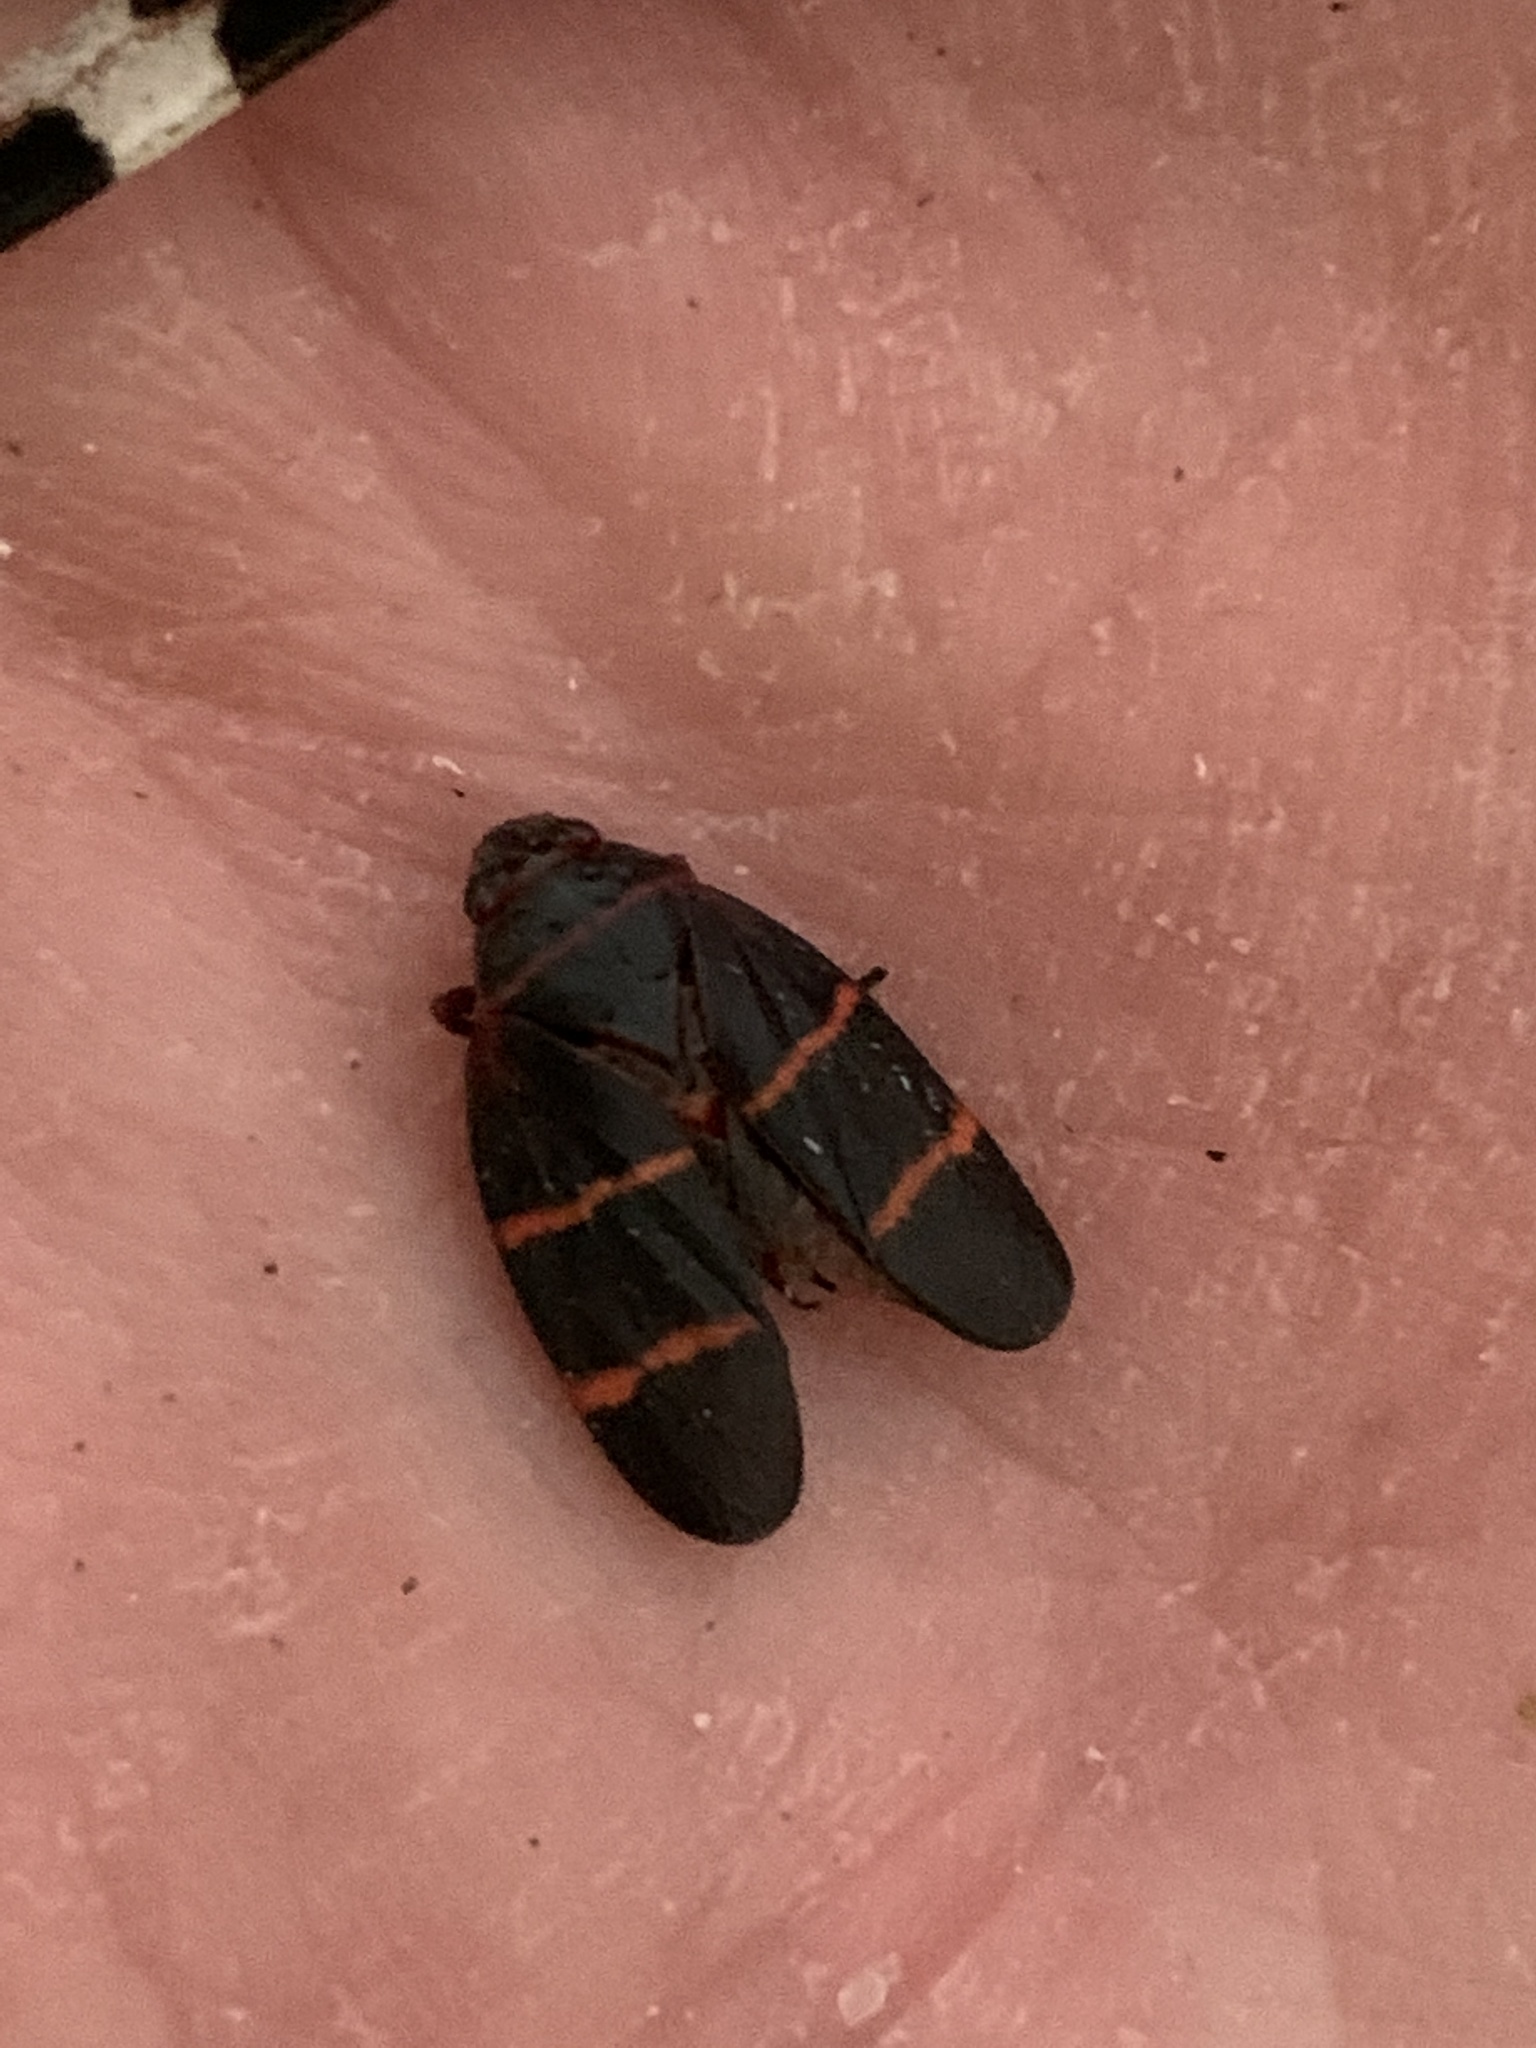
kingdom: Animalia
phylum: Arthropoda
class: Insecta
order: Hemiptera
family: Cercopidae
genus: Prosapia
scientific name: Prosapia bicincta
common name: Twolined spittlebug
